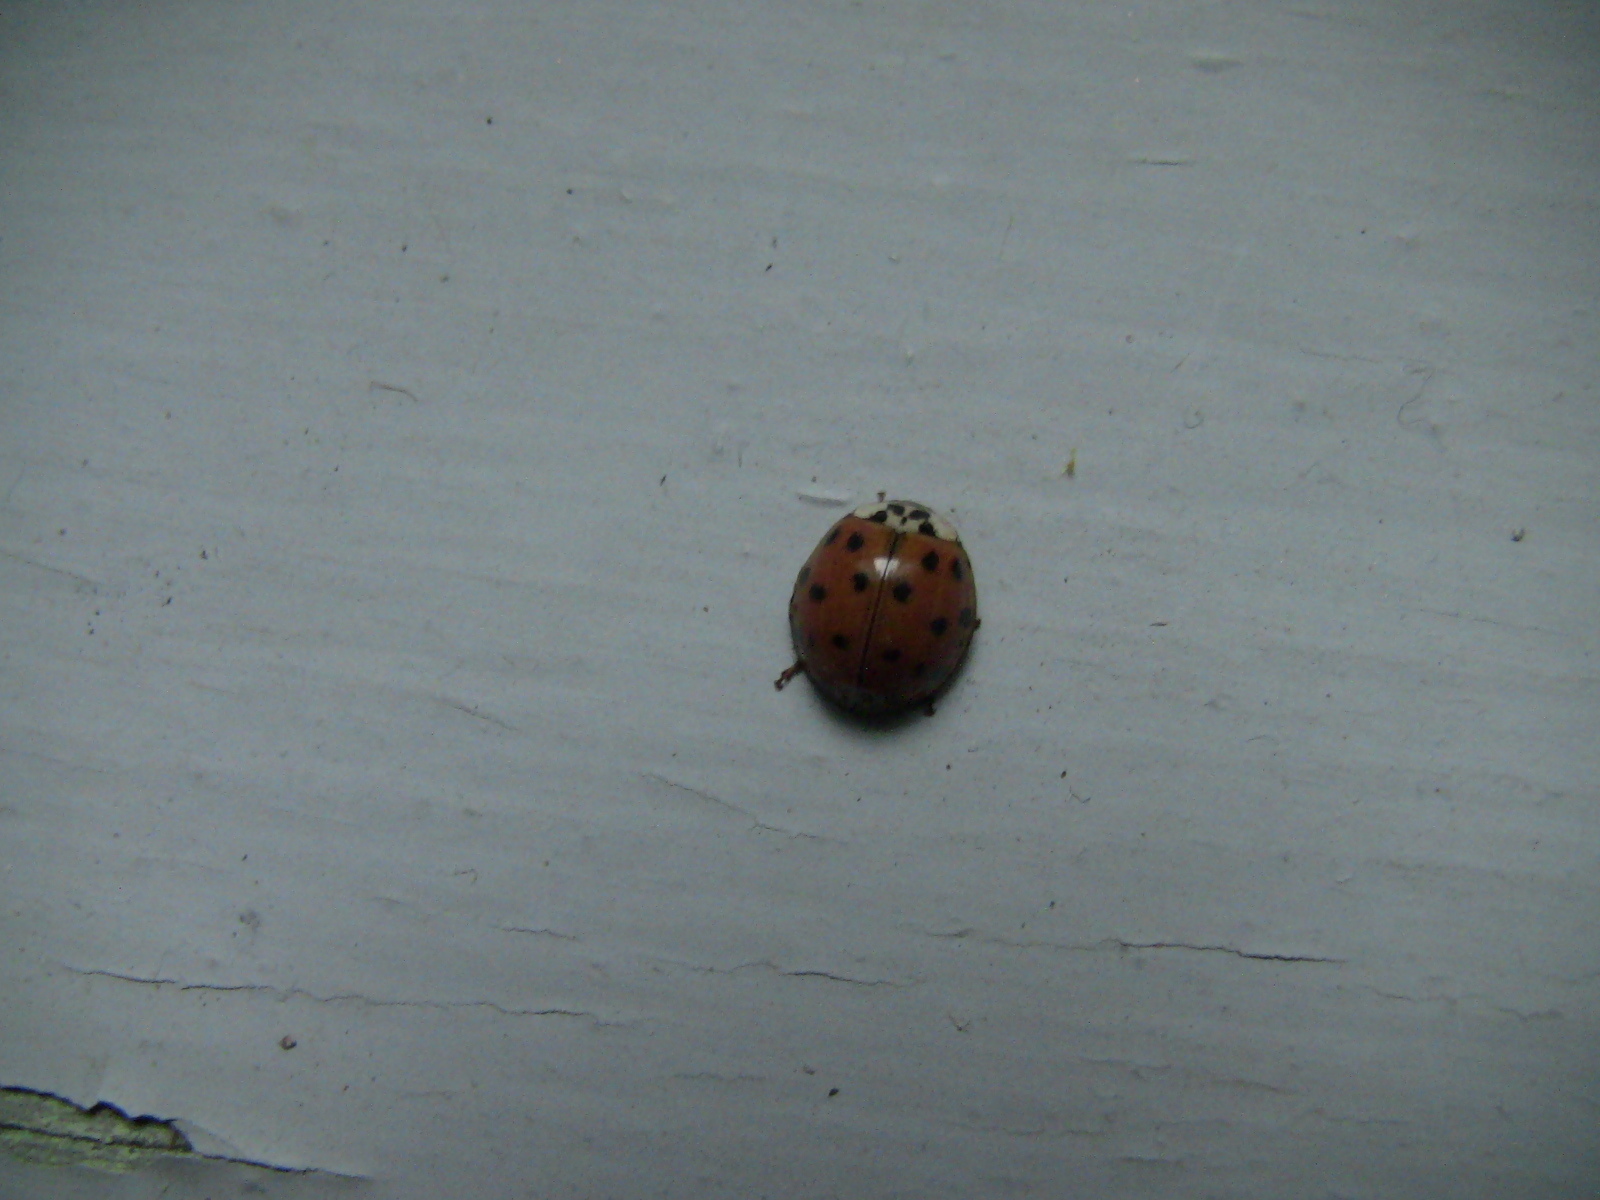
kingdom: Animalia
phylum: Arthropoda
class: Insecta
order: Coleoptera
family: Coccinellidae
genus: Harmonia
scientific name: Harmonia axyridis
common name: Harlequin ladybird
